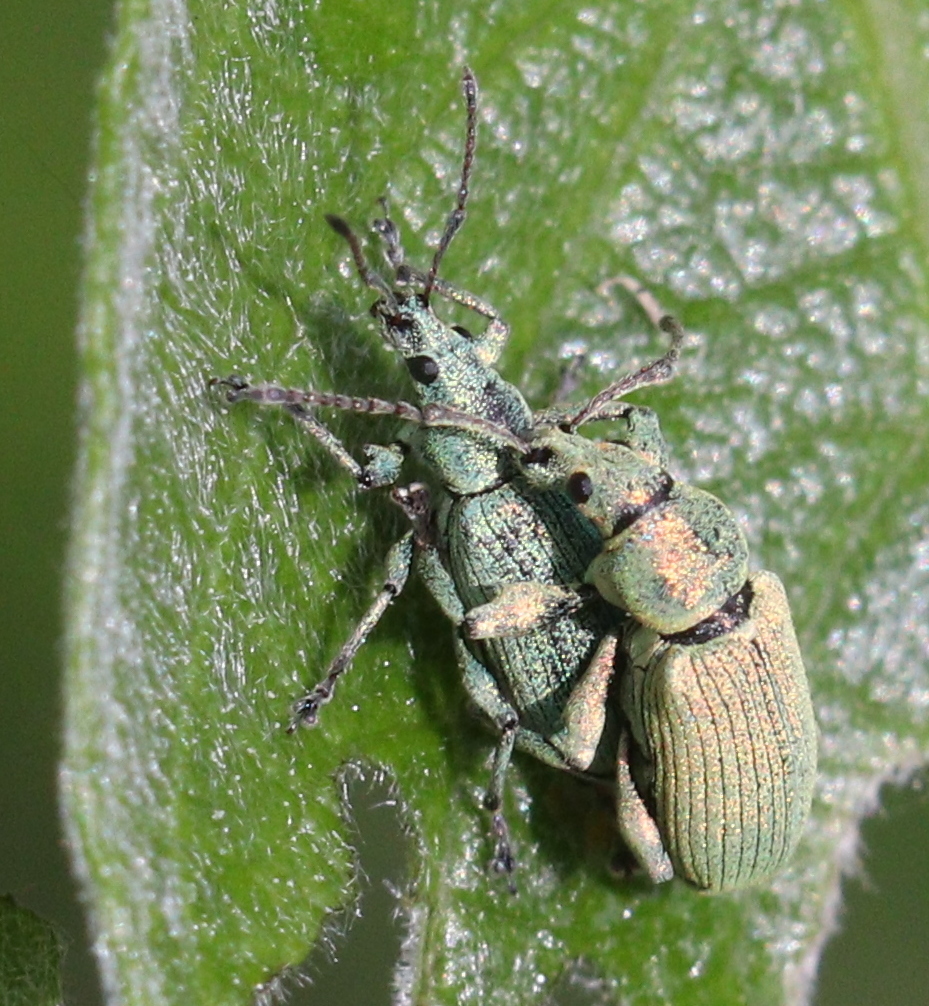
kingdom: Animalia
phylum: Arthropoda
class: Insecta
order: Coleoptera
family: Curculionidae
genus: Phyllobius
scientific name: Phyllobius maculicornis
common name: Green leaf weevil
